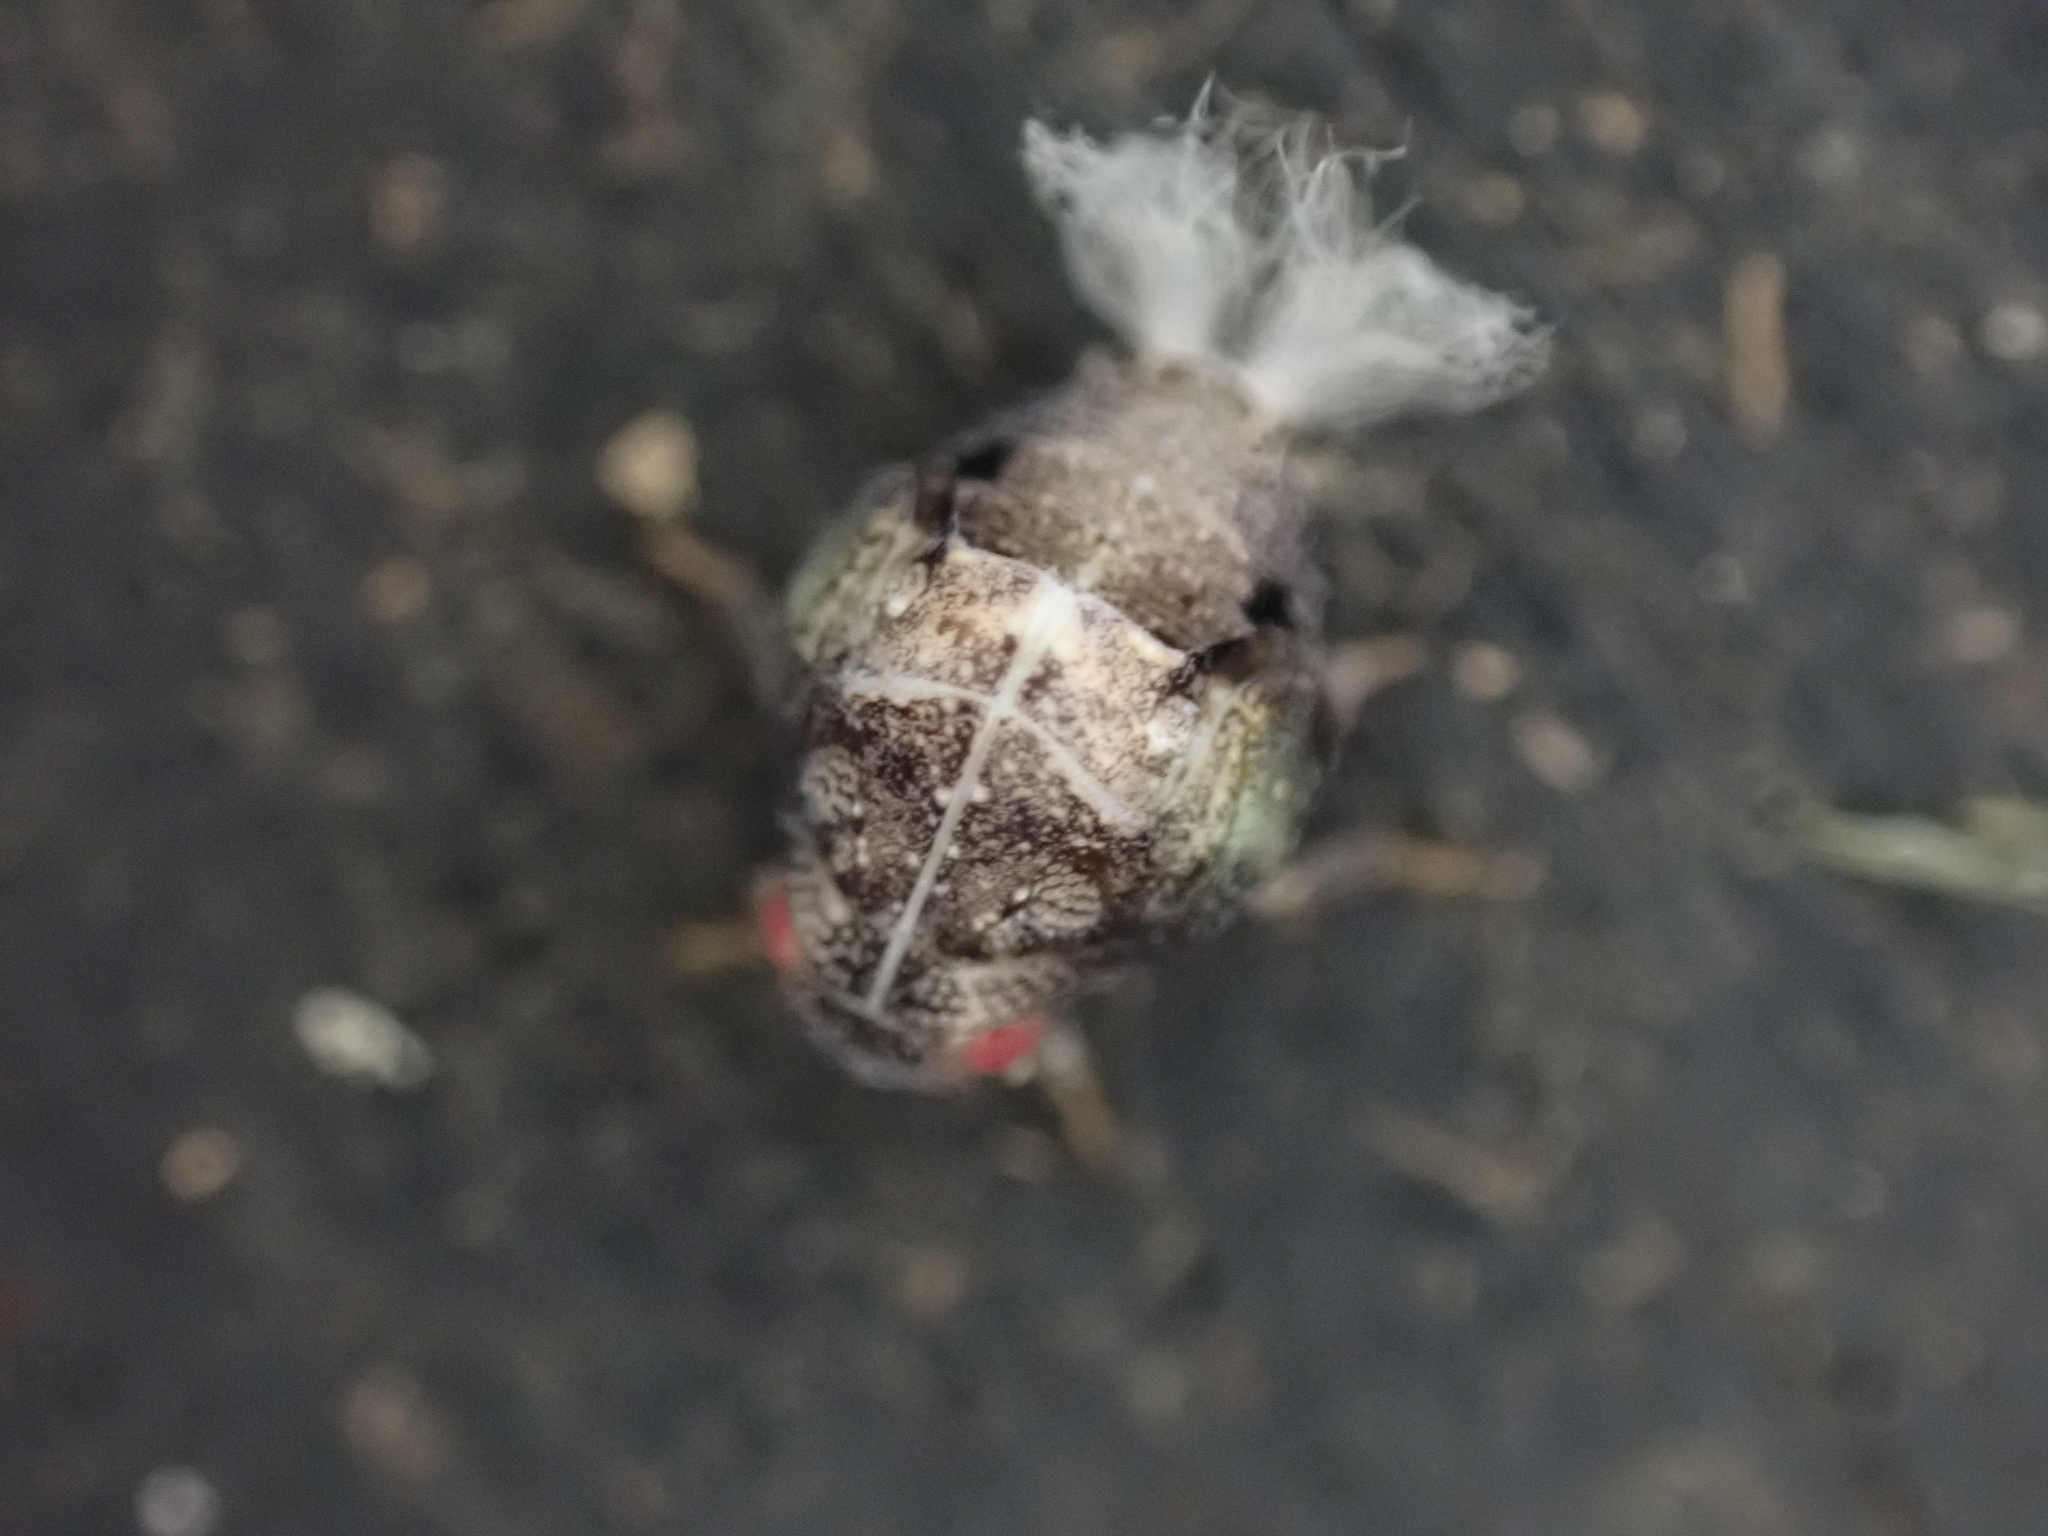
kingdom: Animalia
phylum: Arthropoda
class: Insecta
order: Hemiptera
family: Acanaloniidae
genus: Acanalonia
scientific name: Acanalonia conica
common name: Green cone-headed planthopper
